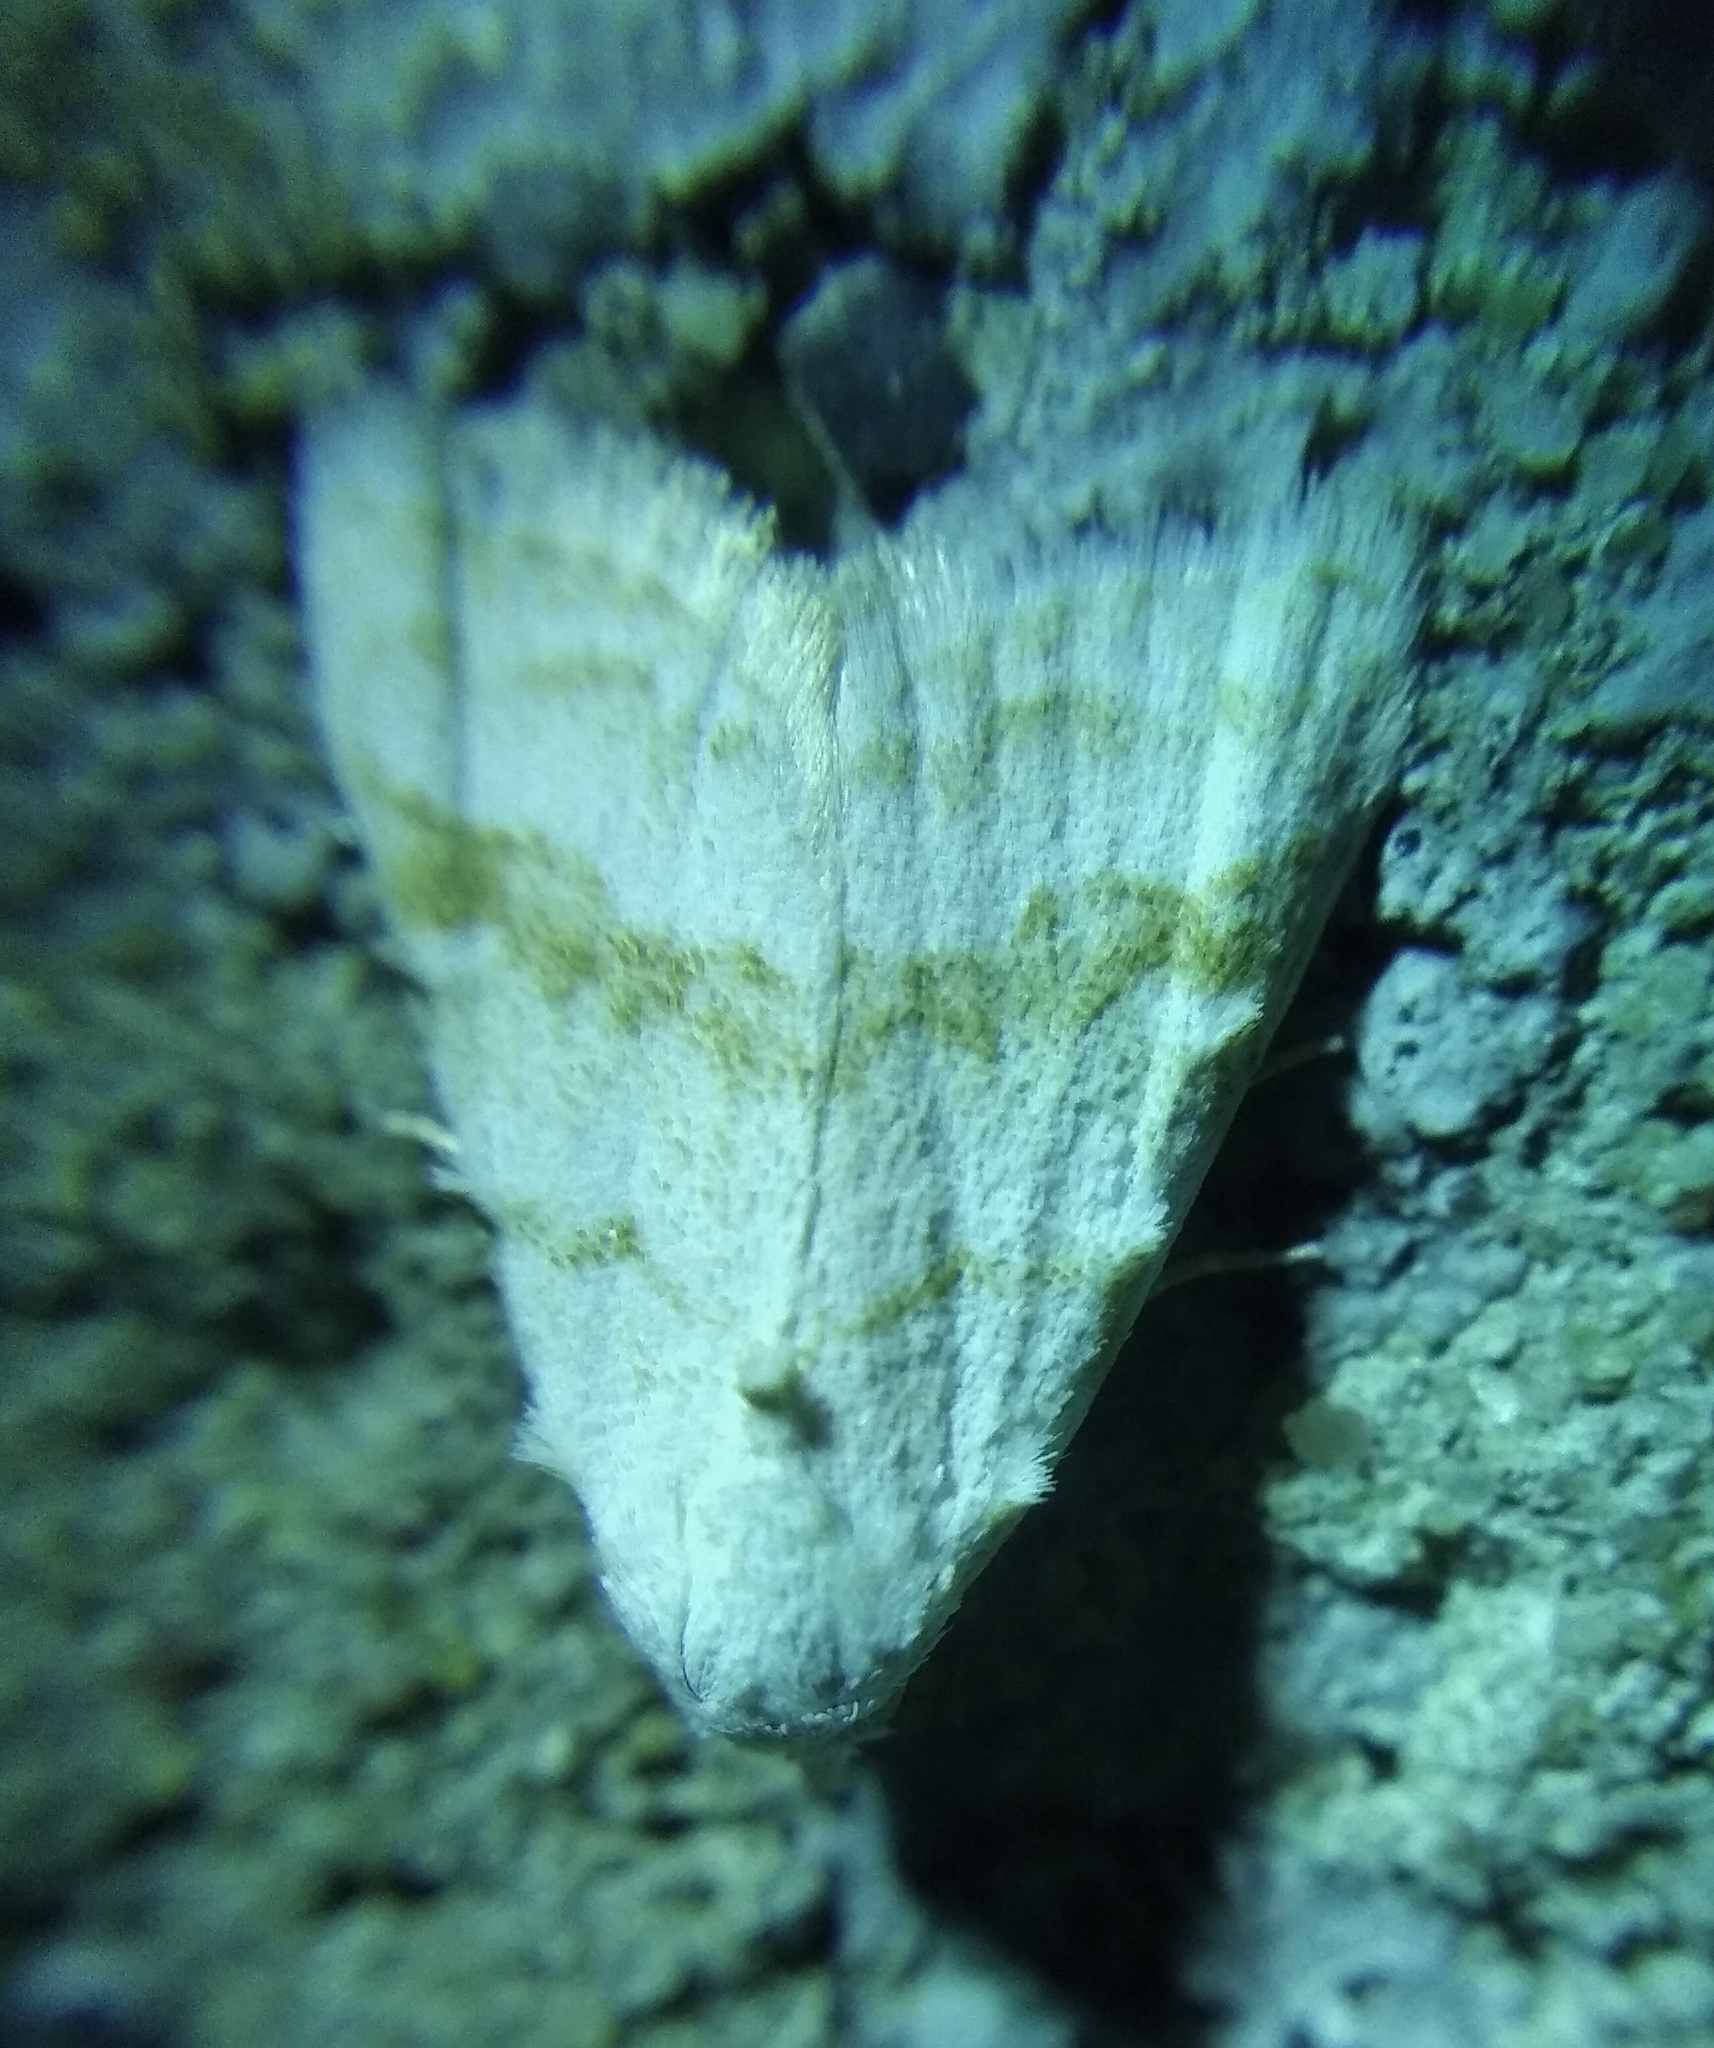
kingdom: Animalia
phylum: Arthropoda
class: Insecta
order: Lepidoptera
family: Nolidae
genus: Nola
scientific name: Nola aerugula
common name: Scarce black arches
